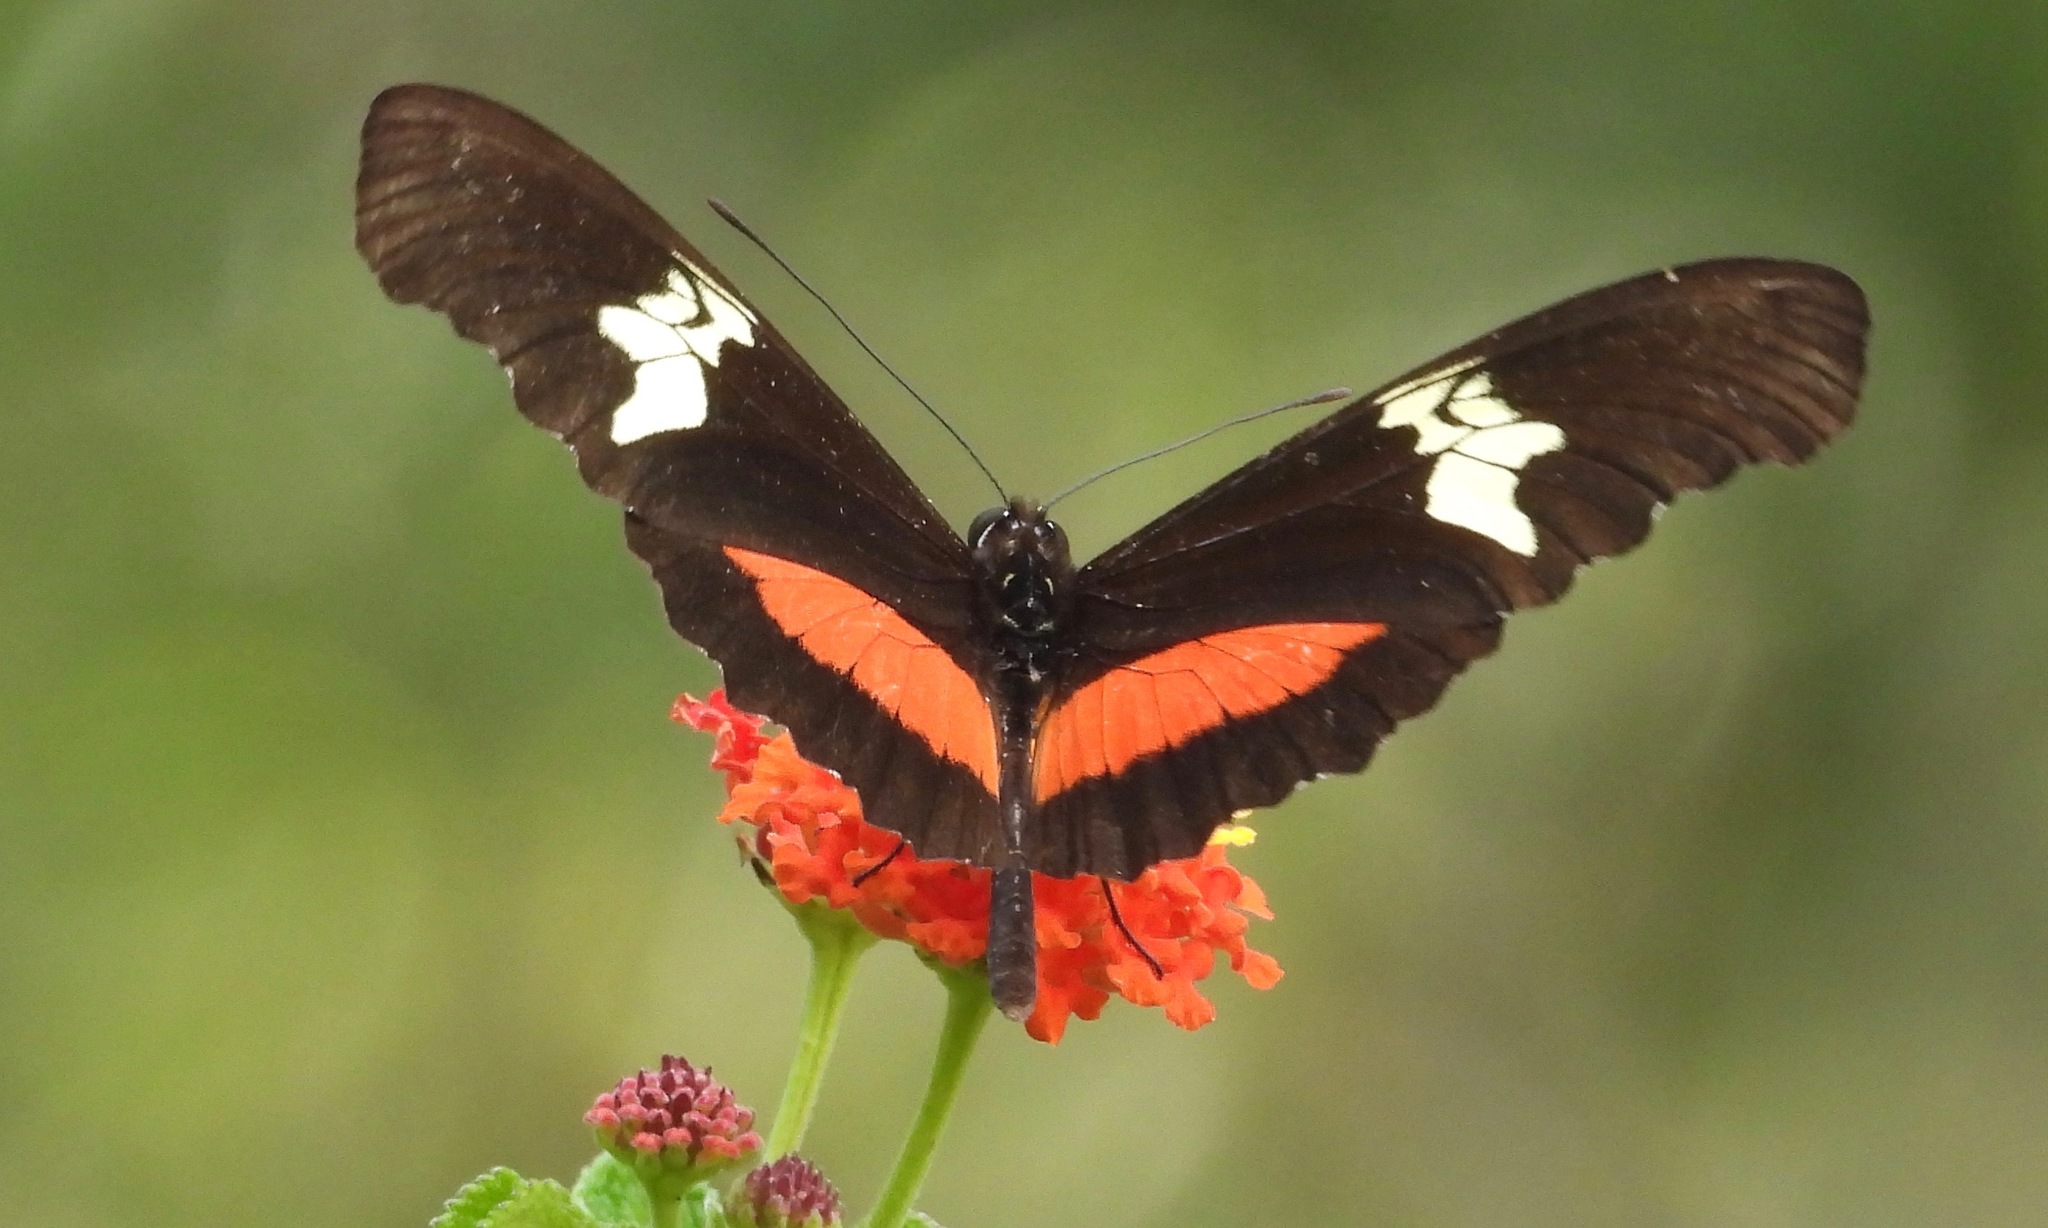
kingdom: Animalia
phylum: Arthropoda
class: Insecta
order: Lepidoptera
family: Nymphalidae
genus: Heliconius
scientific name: Heliconius hortense
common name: Mexican longwing
